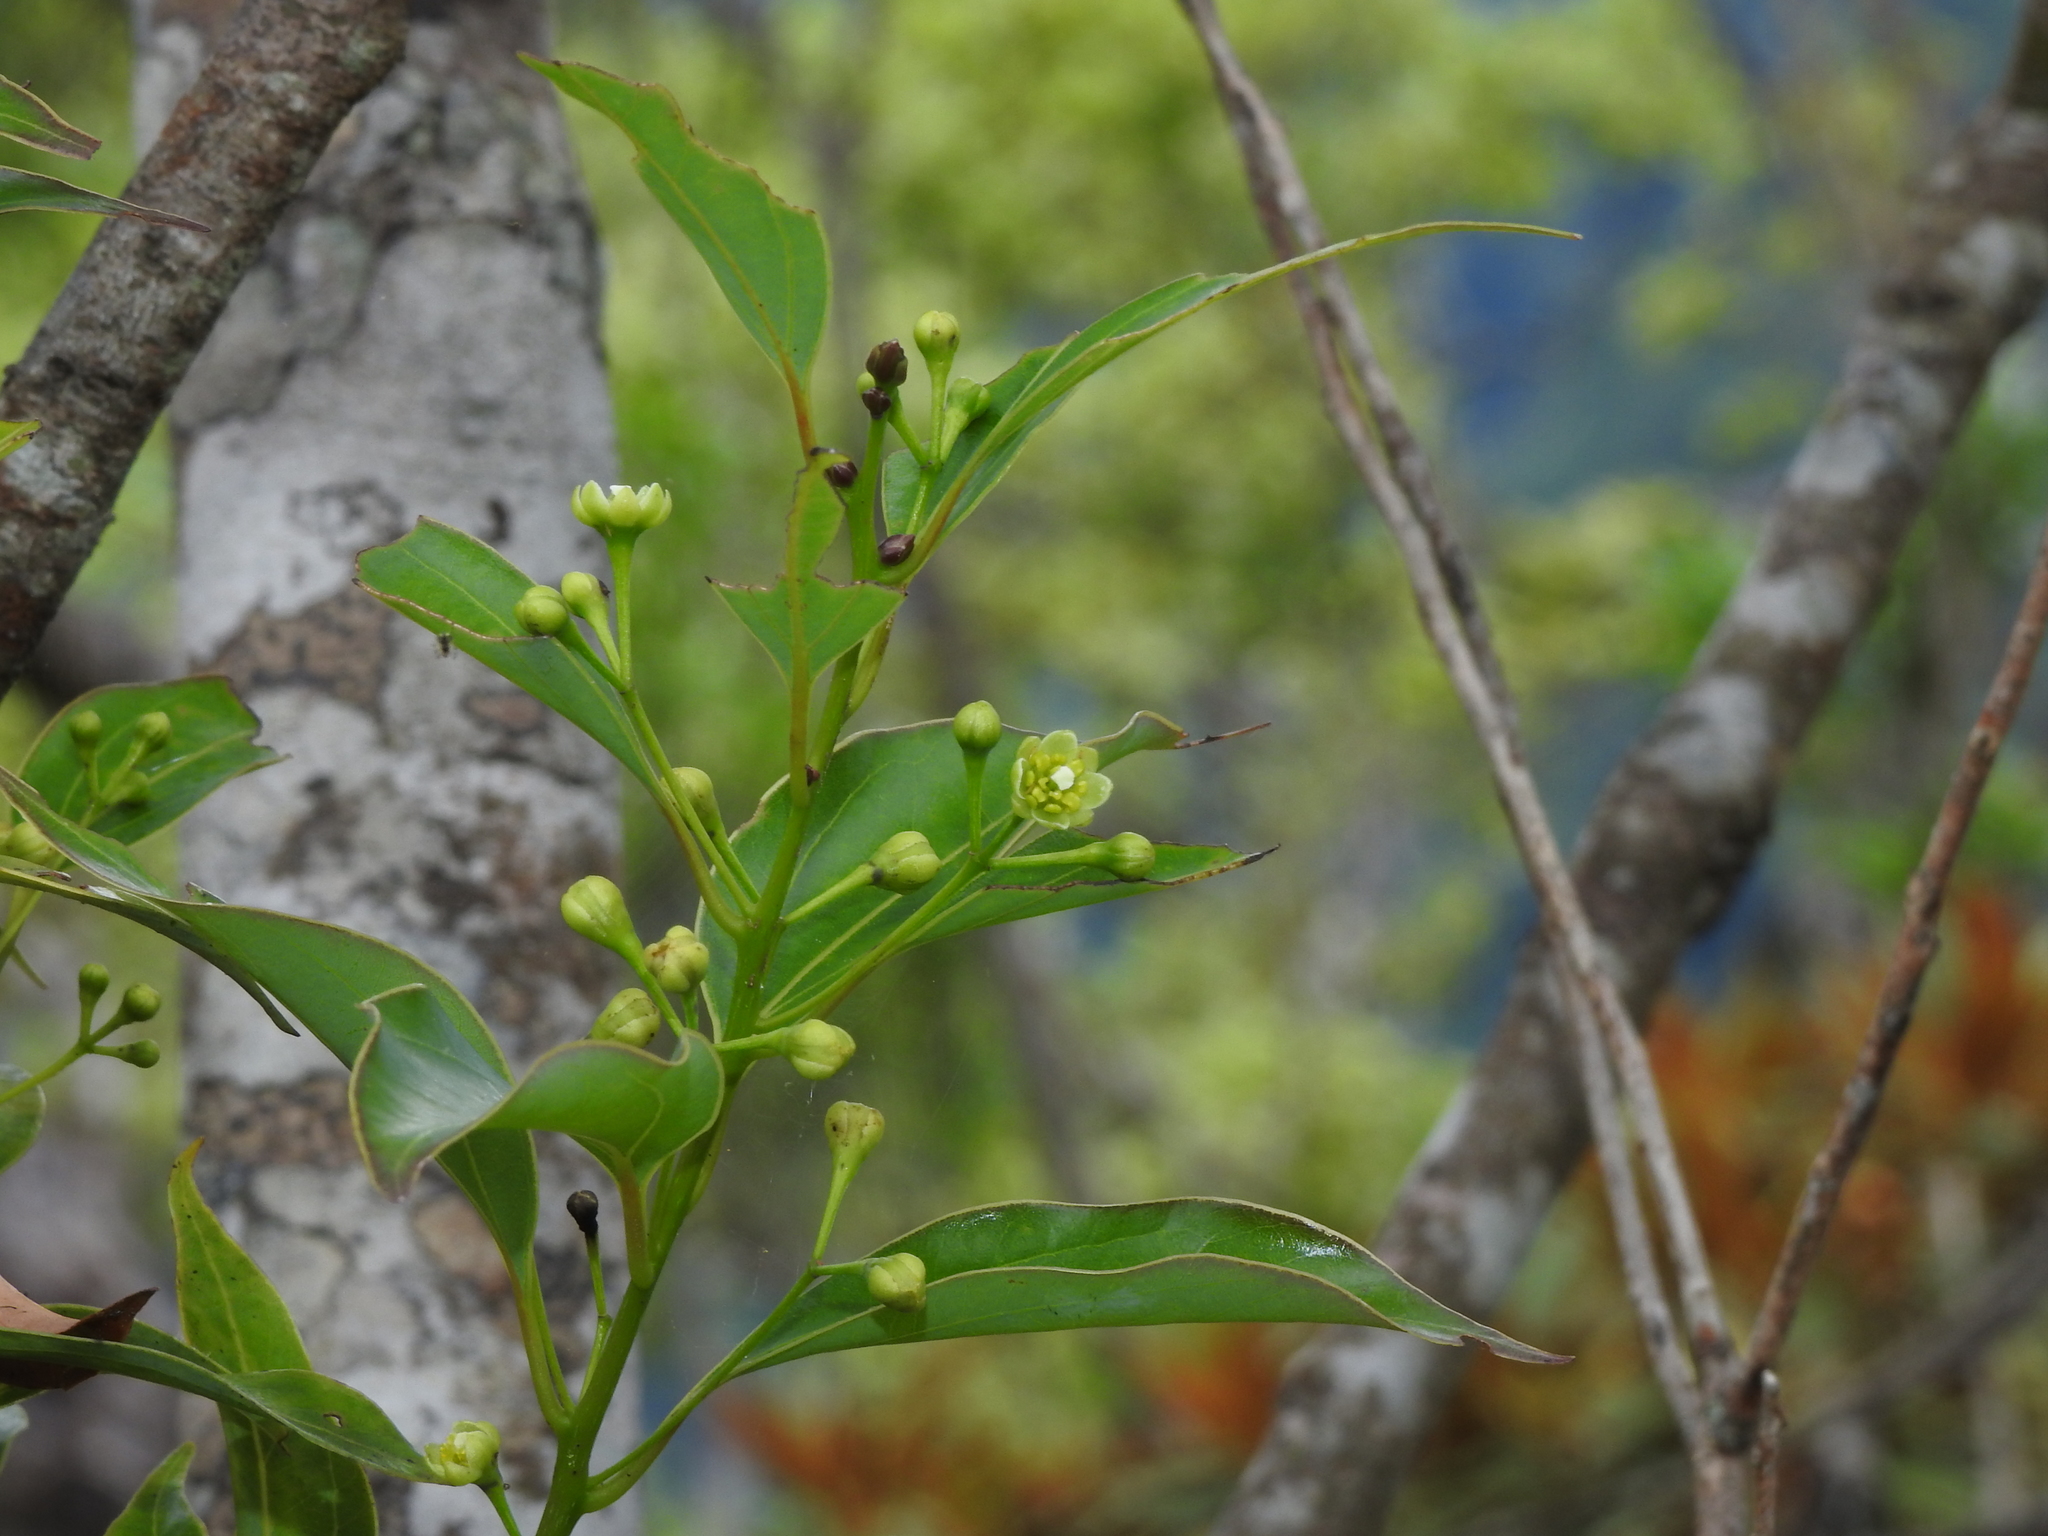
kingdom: Plantae
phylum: Tracheophyta
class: Magnoliopsida
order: Laurales
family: Lauraceae
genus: Cinnamomum
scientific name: Cinnamomum chekiangense
